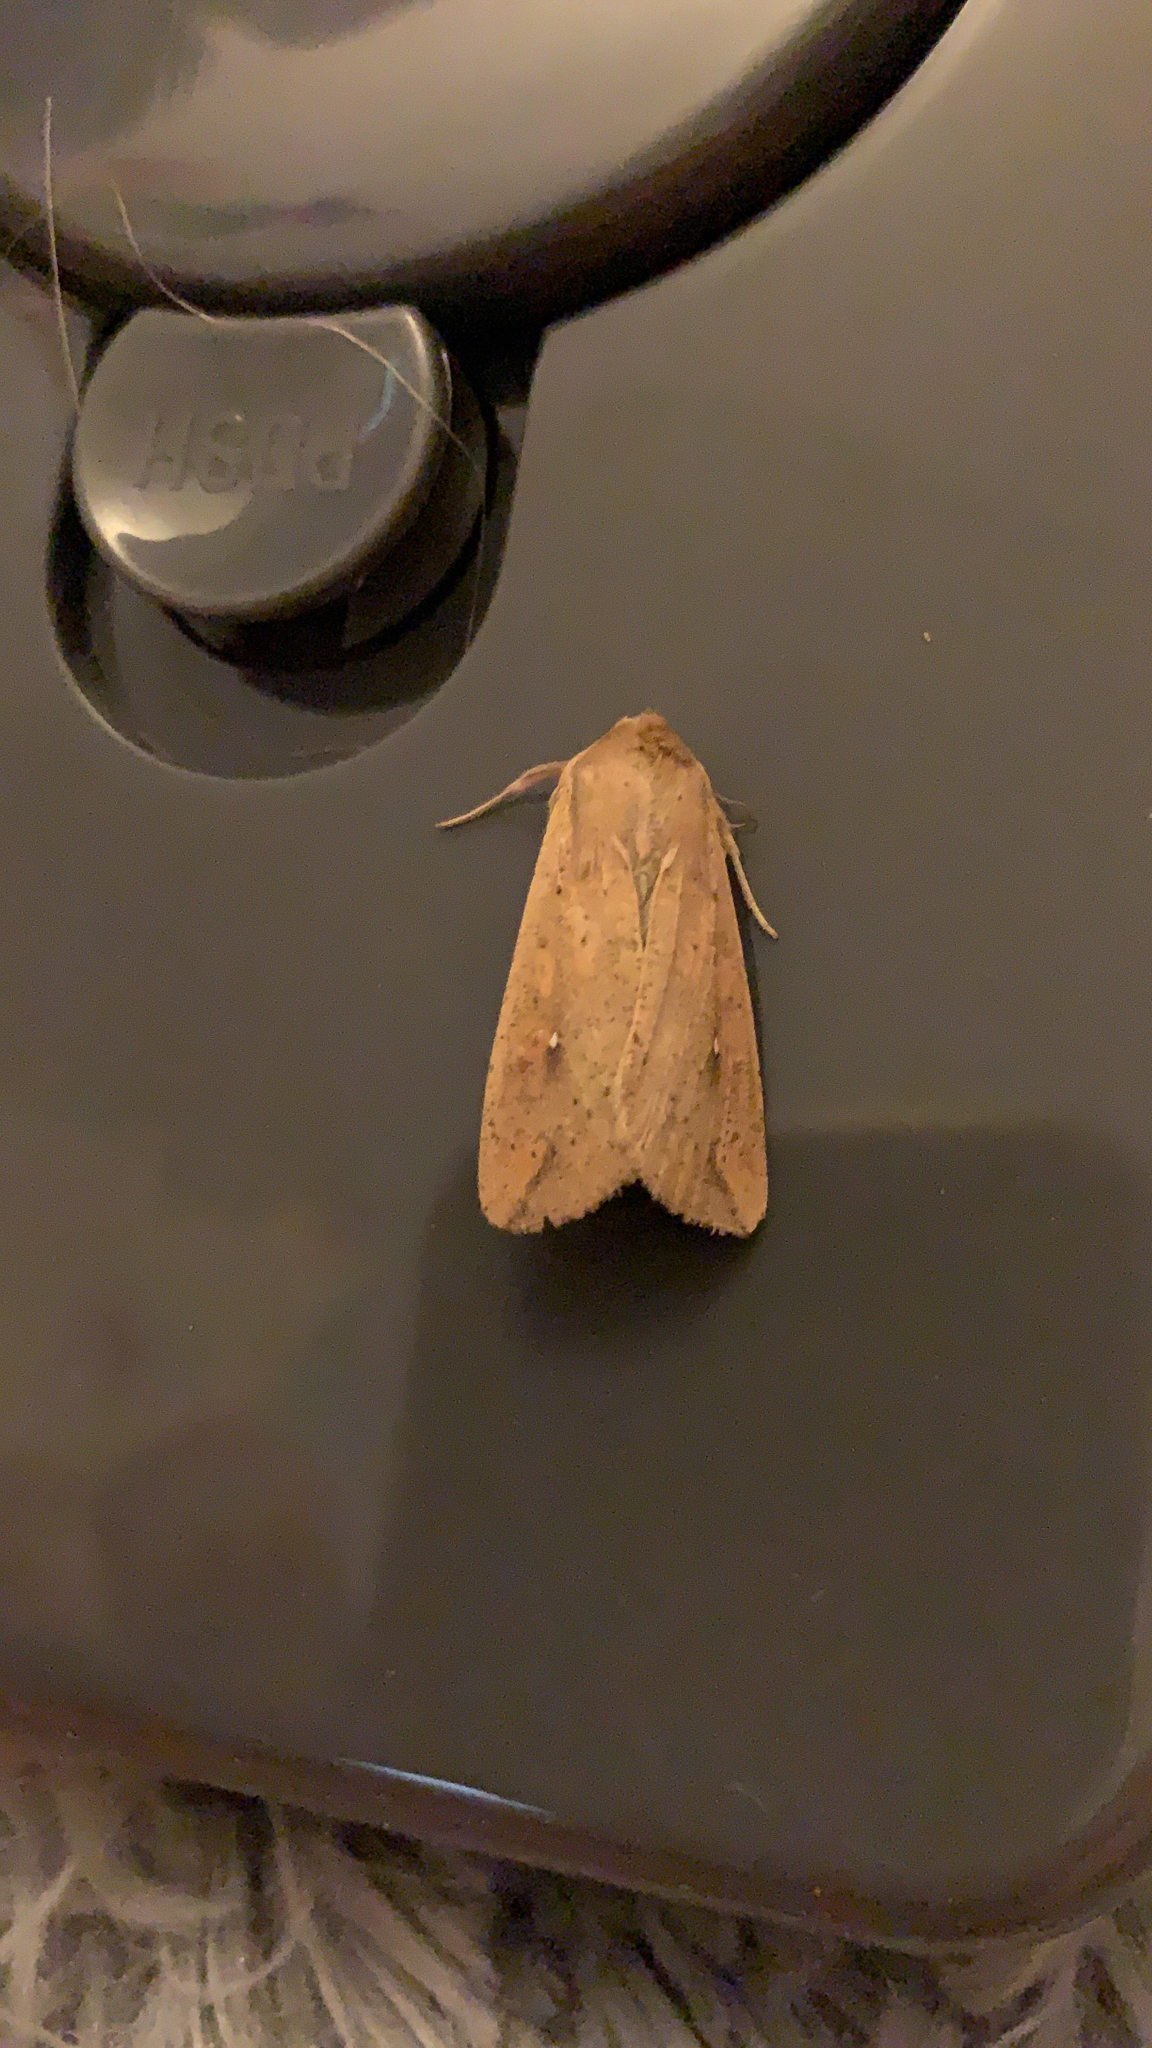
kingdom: Animalia
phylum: Arthropoda
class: Insecta
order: Lepidoptera
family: Noctuidae
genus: Mythimna
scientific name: Mythimna unipuncta
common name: White-speck
